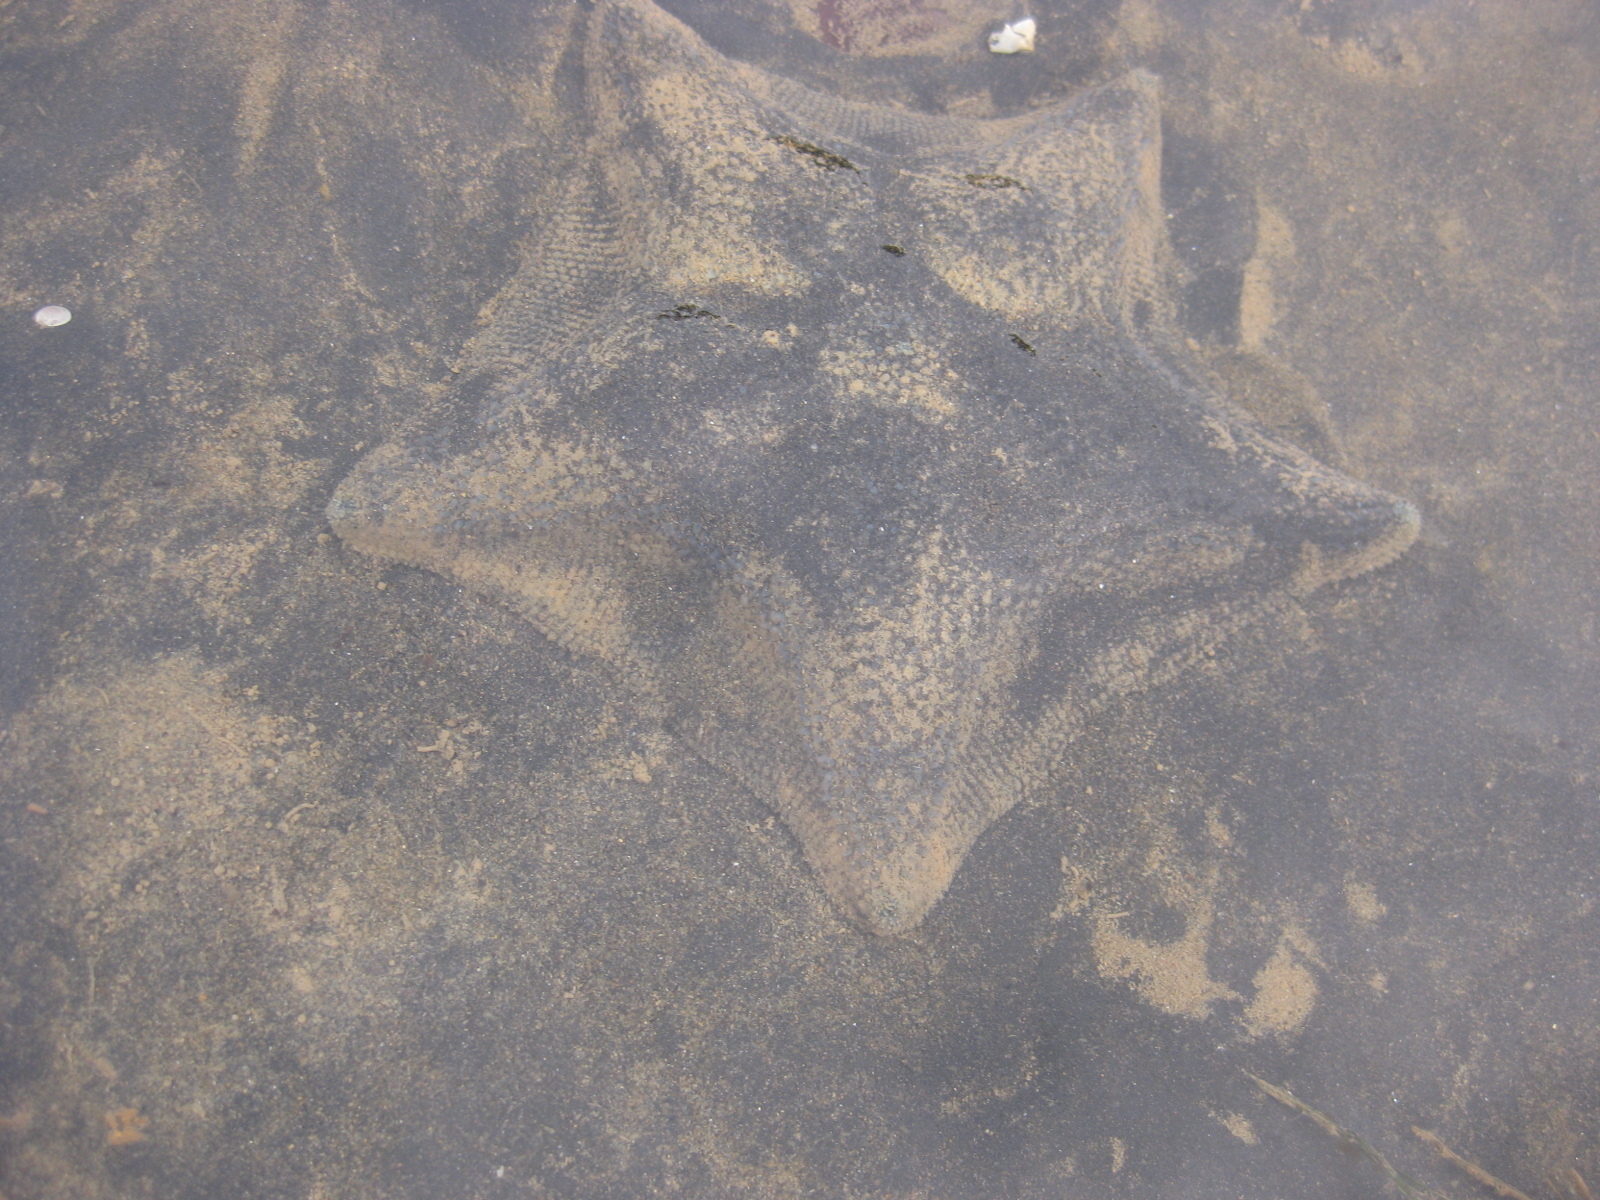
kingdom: Animalia
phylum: Echinodermata
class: Asteroidea
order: Valvatida
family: Asterinidae
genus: Patiriella
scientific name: Patiriella regularis
